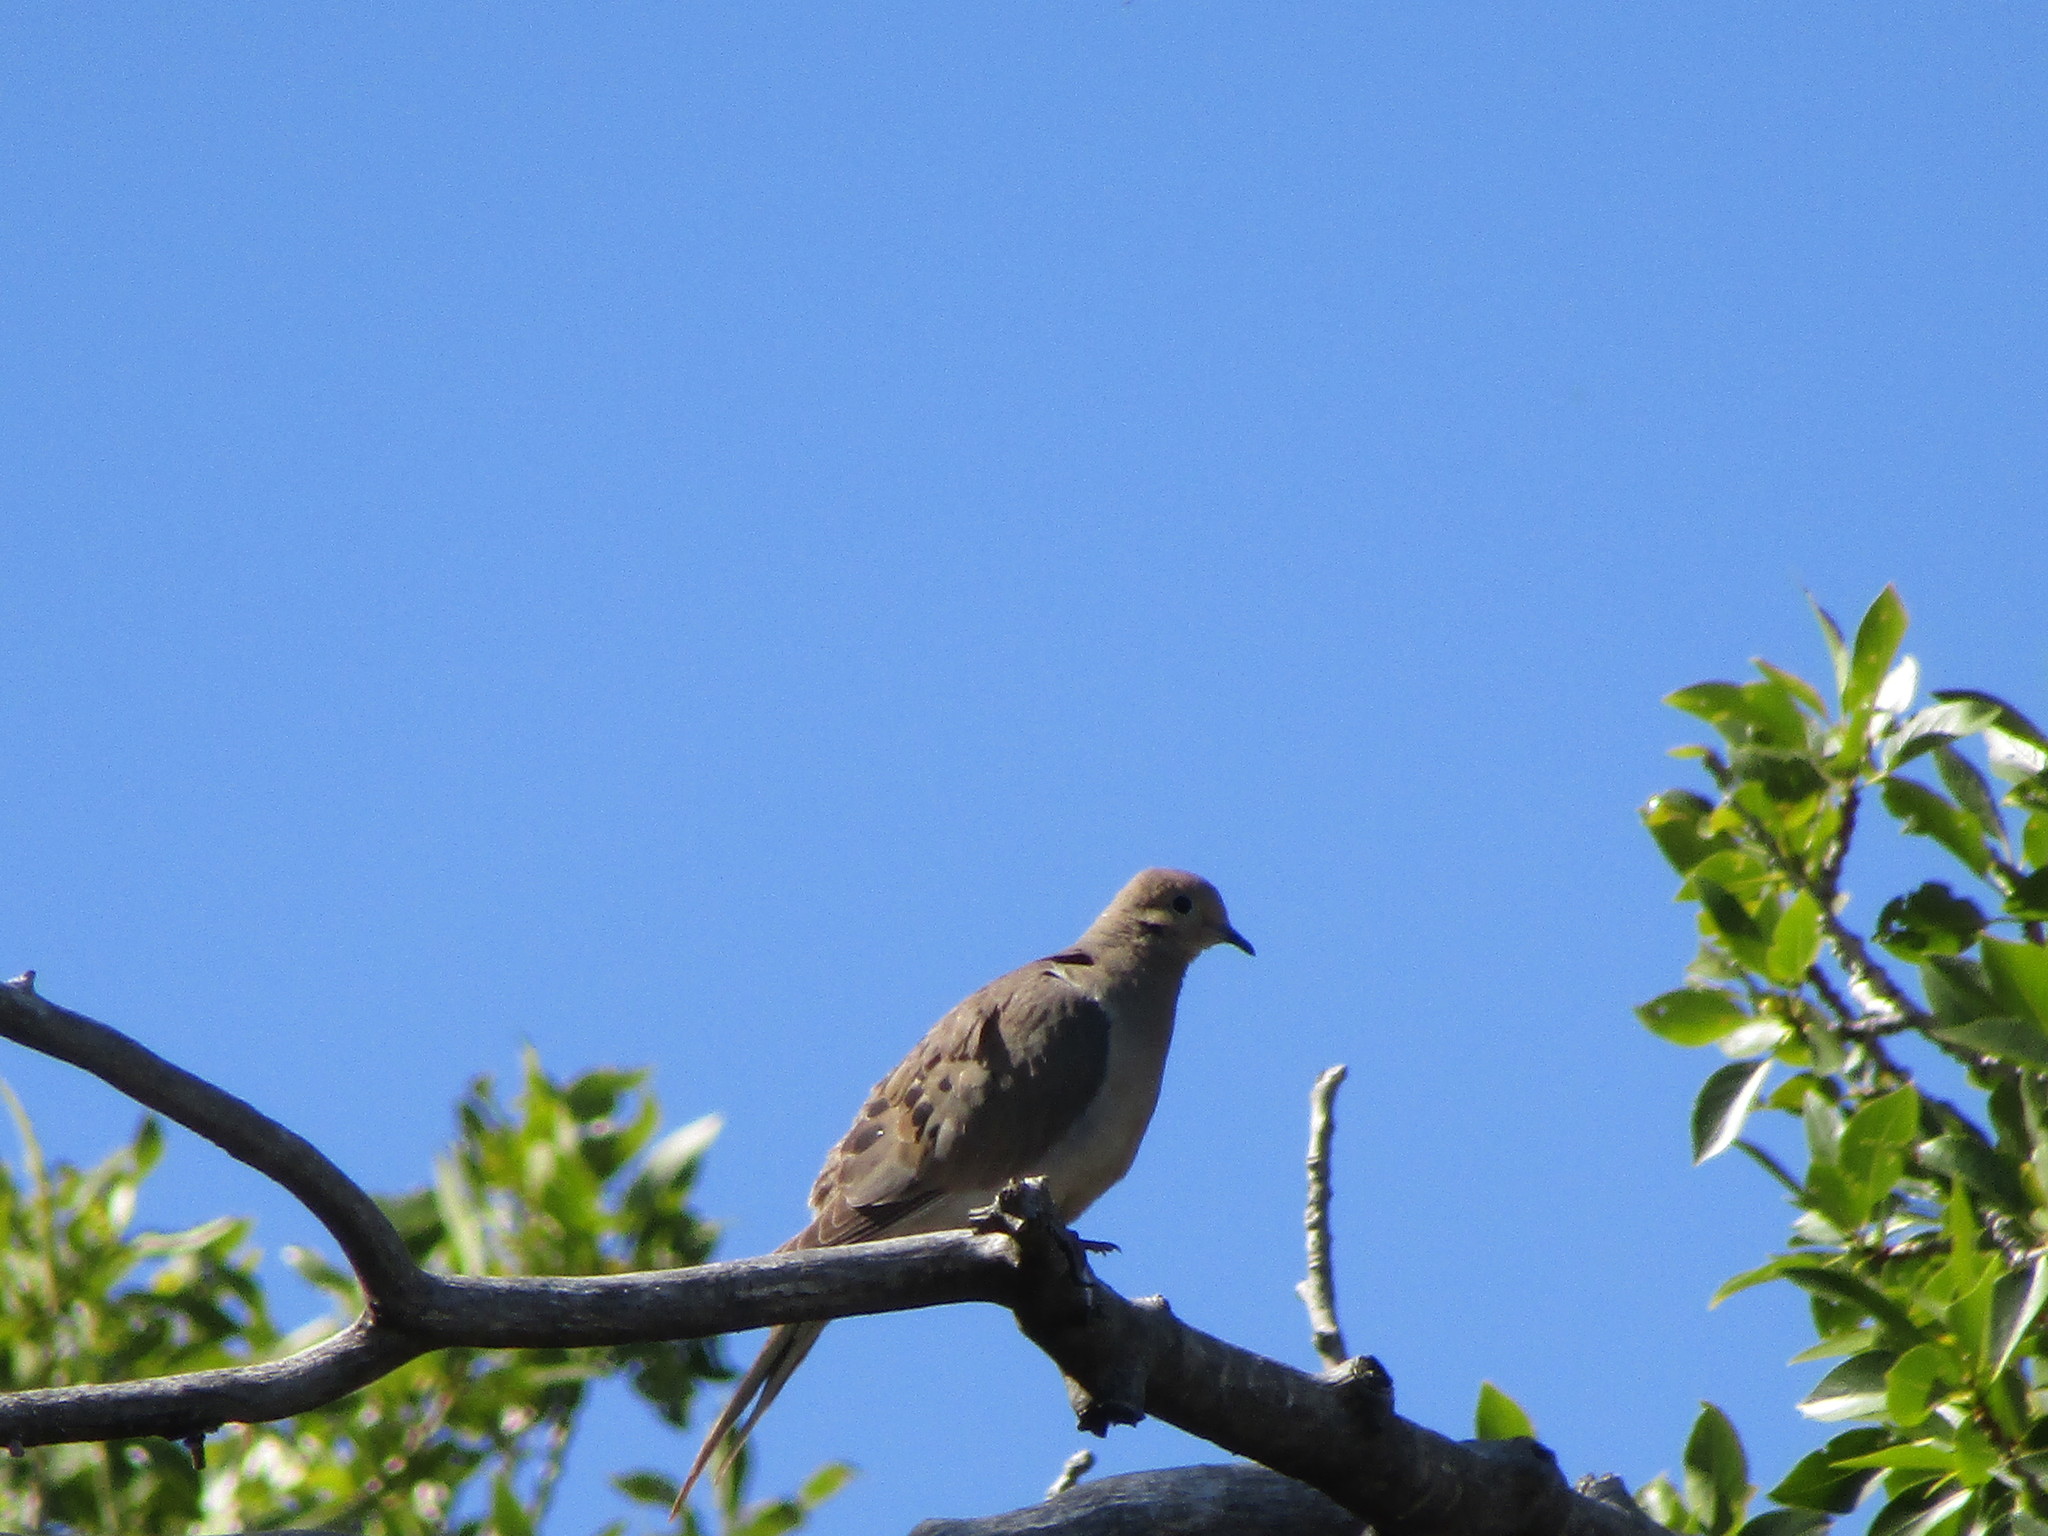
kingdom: Animalia
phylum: Chordata
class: Aves
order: Columbiformes
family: Columbidae
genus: Zenaida
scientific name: Zenaida macroura
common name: Mourning dove
